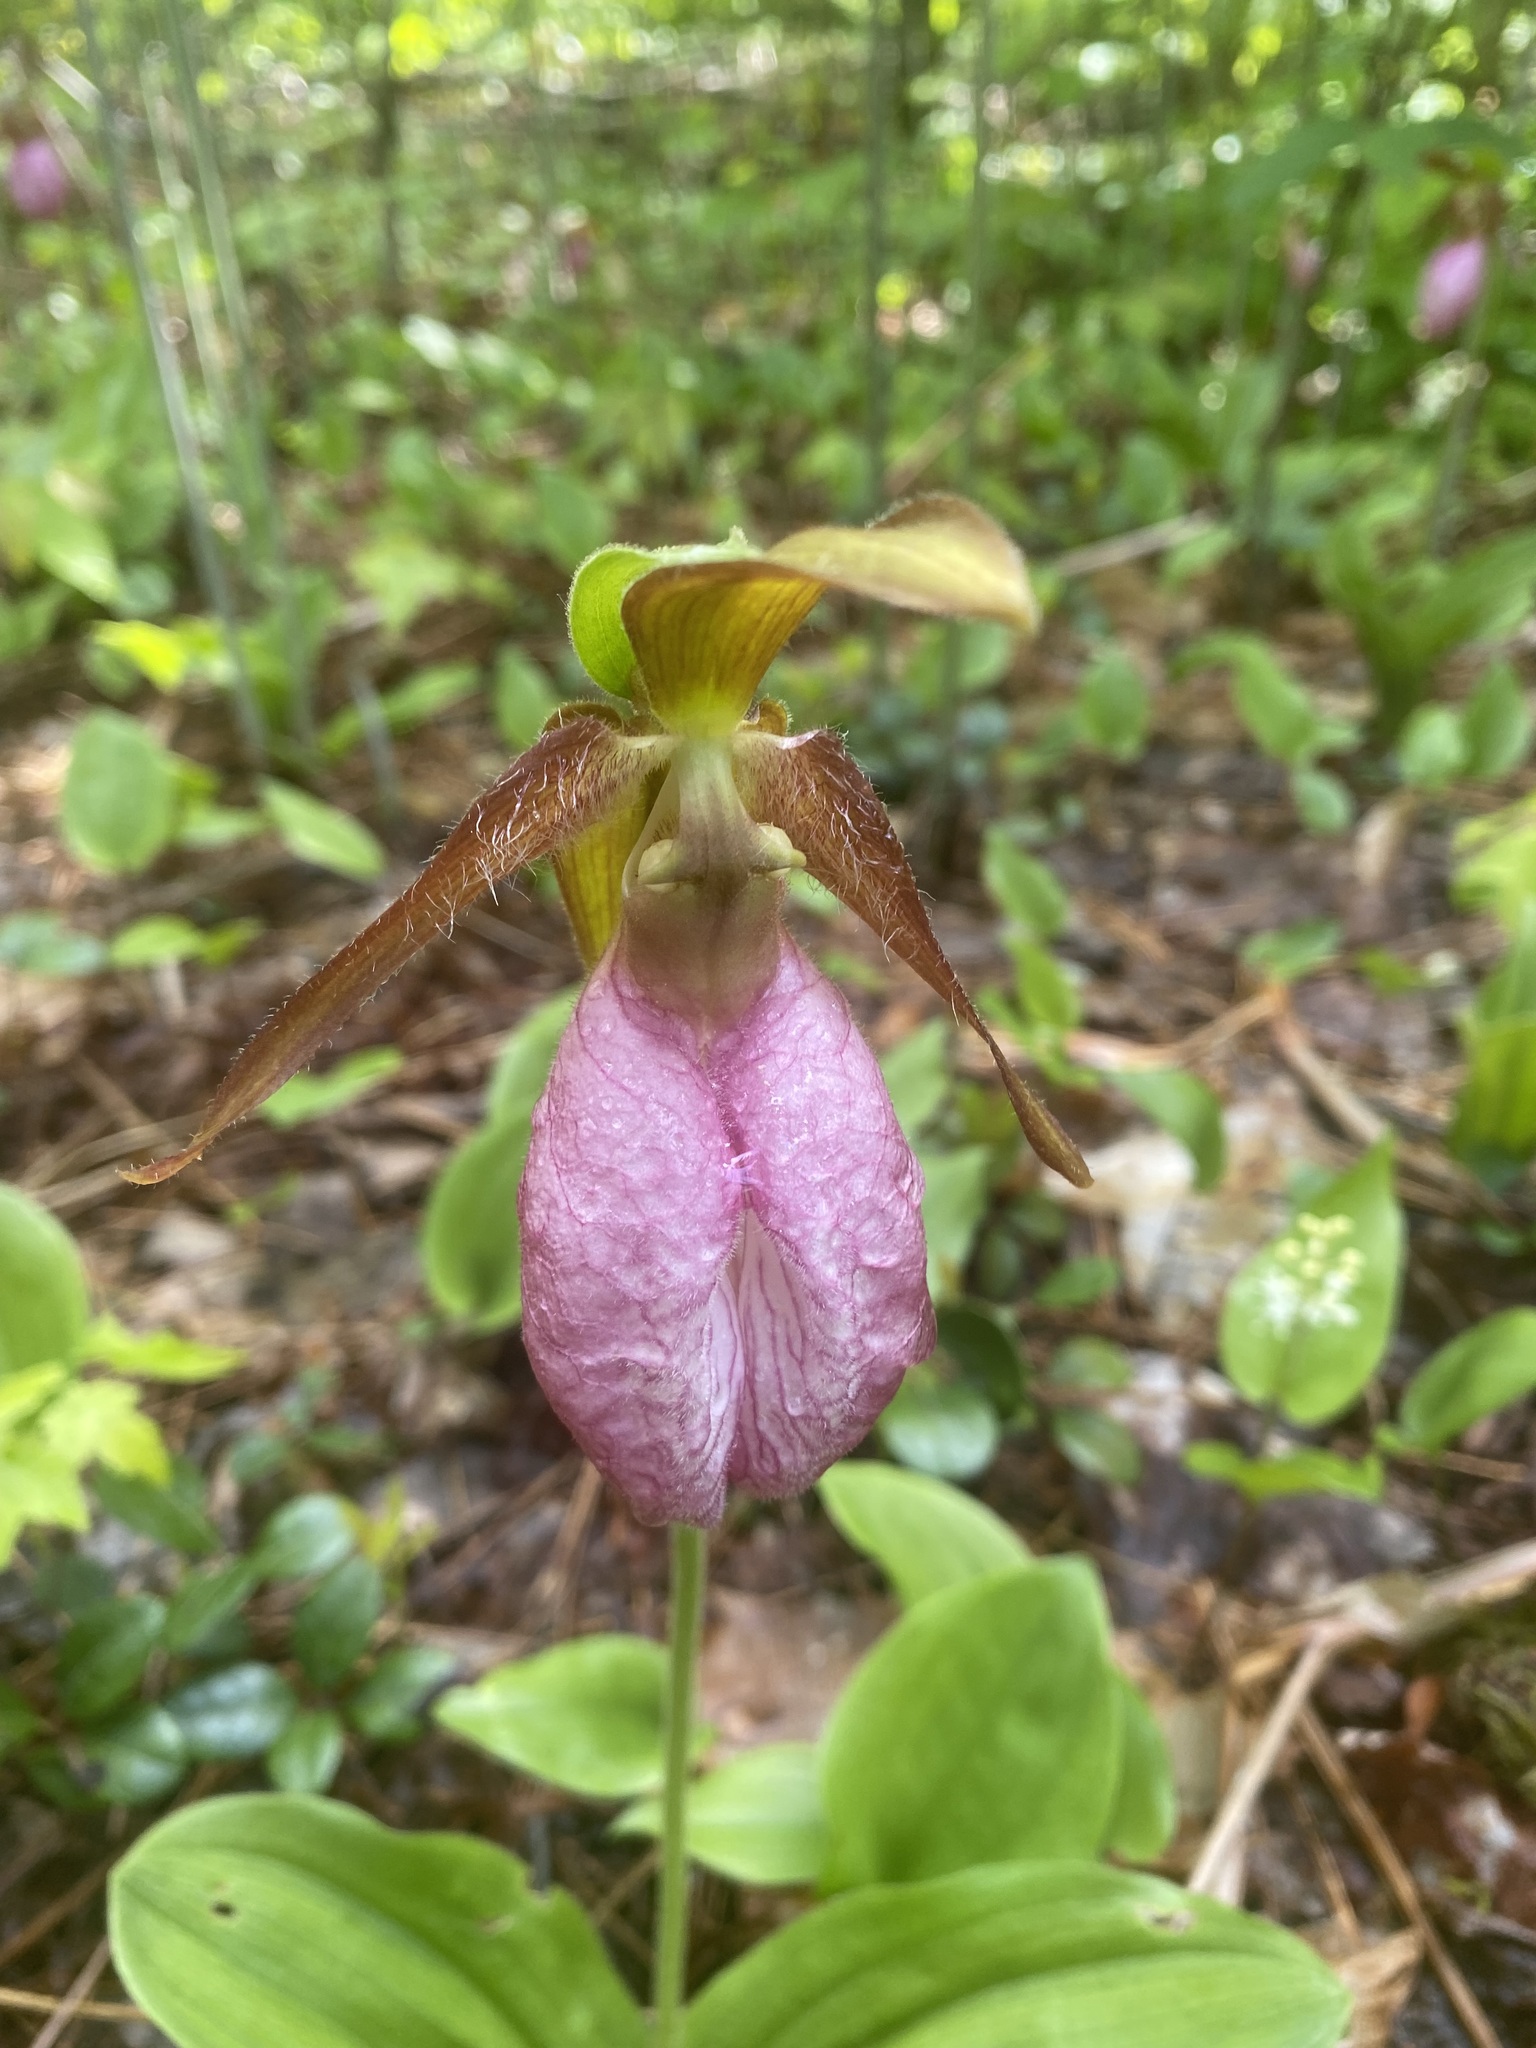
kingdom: Plantae
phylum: Tracheophyta
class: Liliopsida
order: Asparagales
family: Orchidaceae
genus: Cypripedium
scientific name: Cypripedium acaule
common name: Pink lady's-slipper
